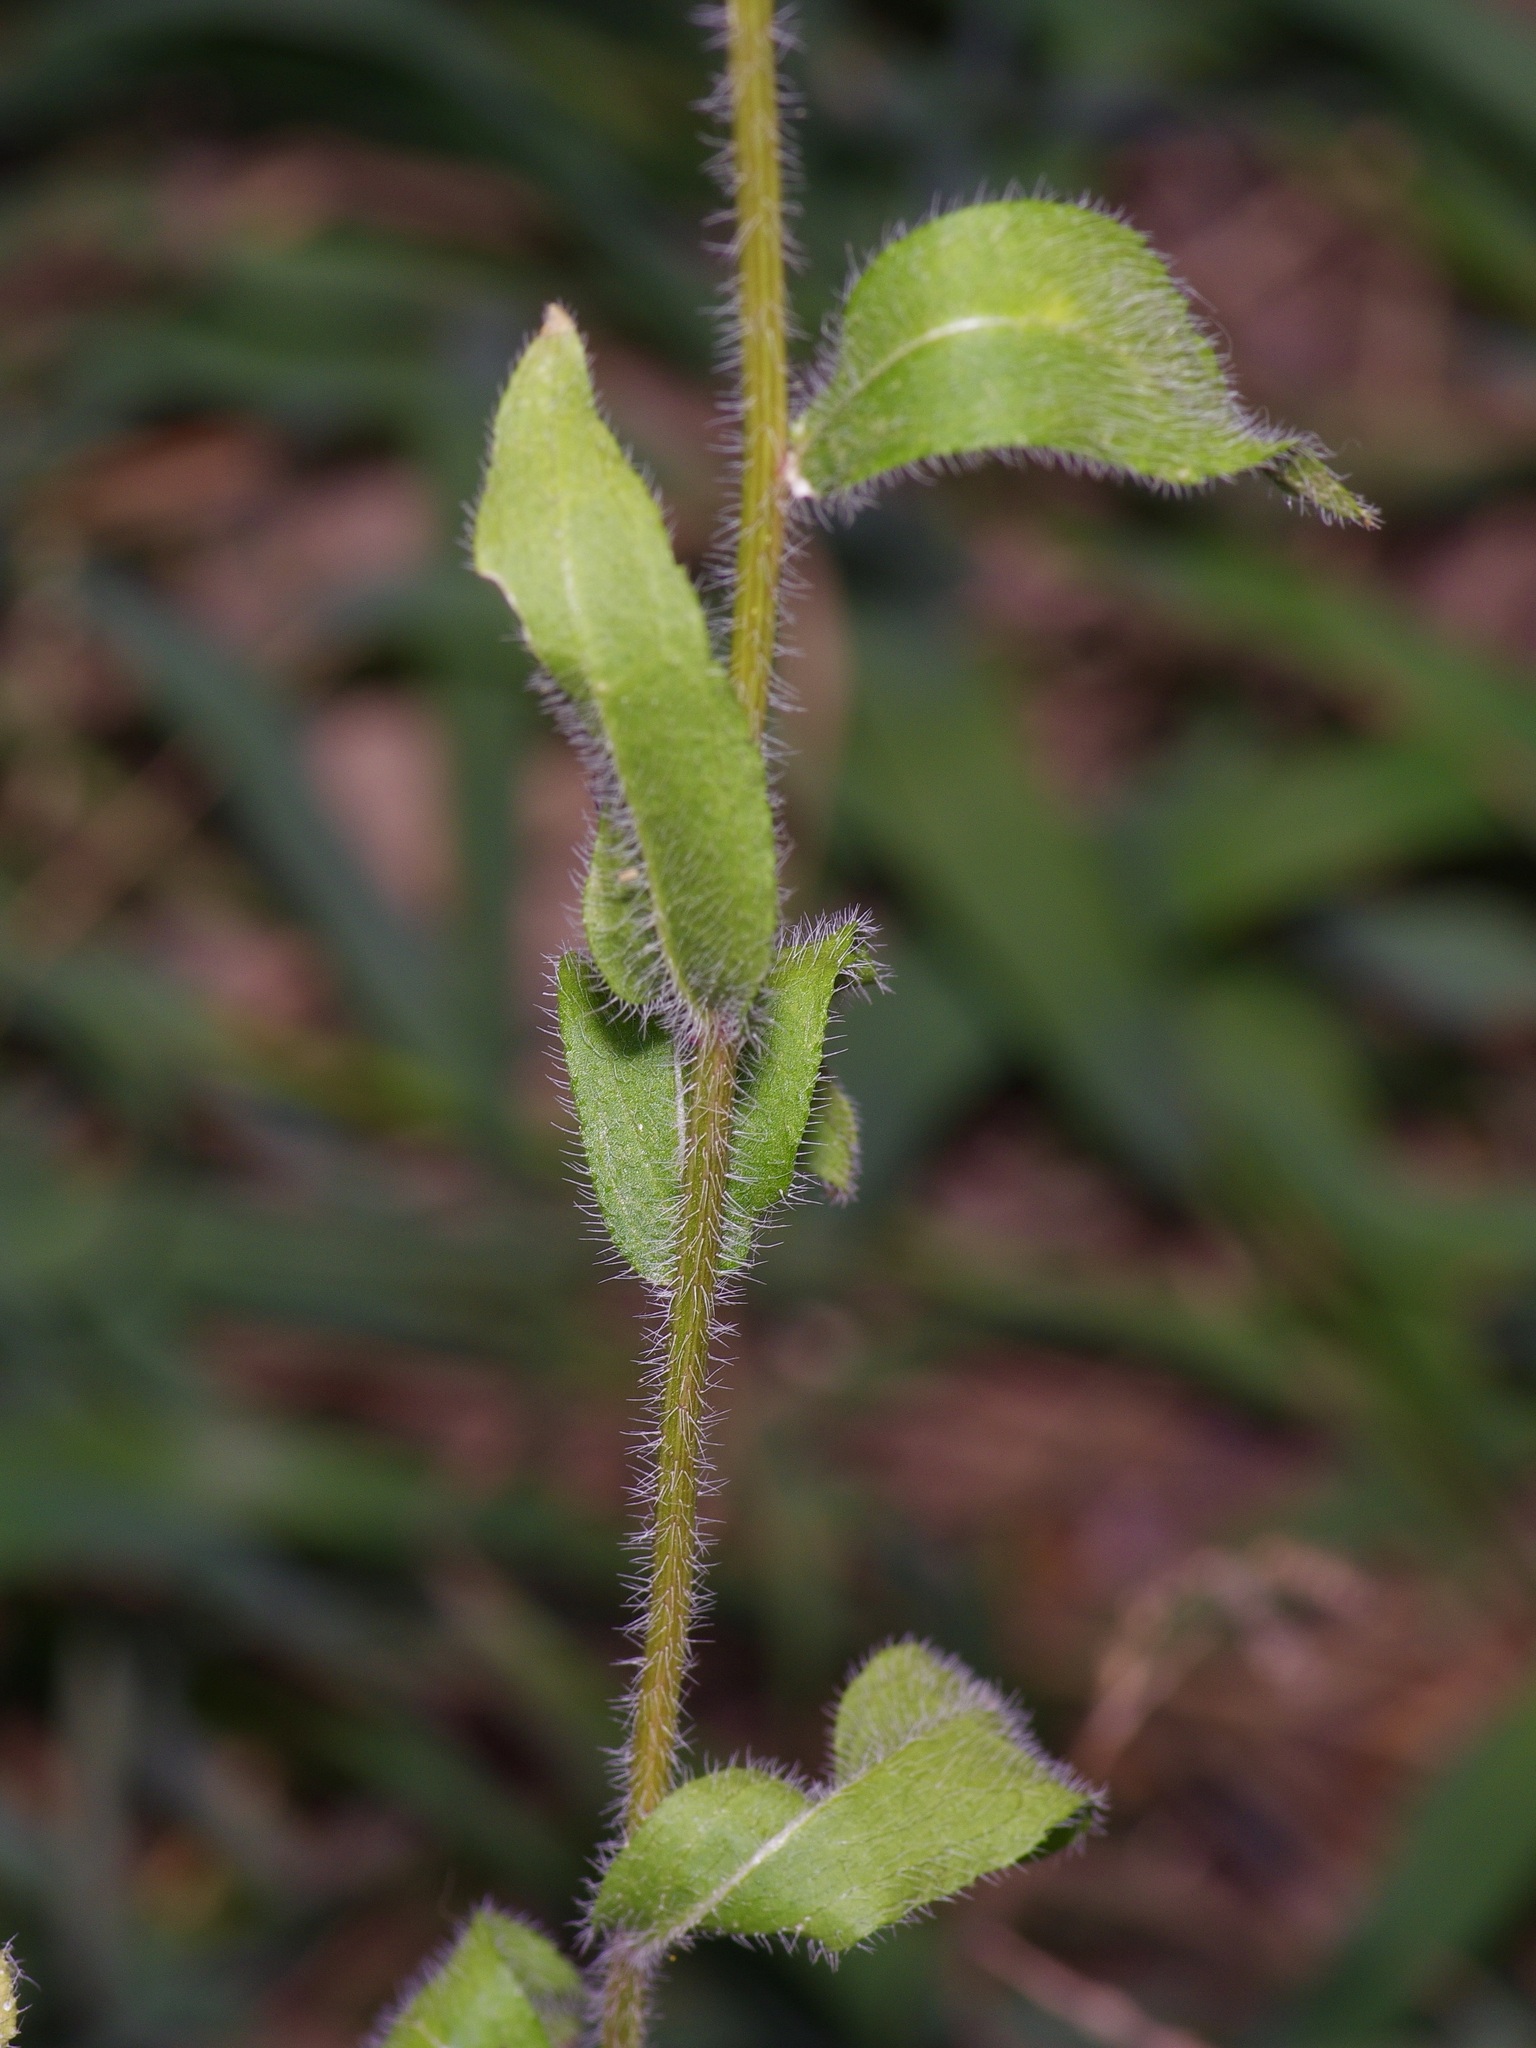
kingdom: Plantae
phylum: Tracheophyta
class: Magnoliopsida
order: Asterales
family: Asteraceae
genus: Rudbeckia
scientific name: Rudbeckia hirta
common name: Black-eyed-susan
